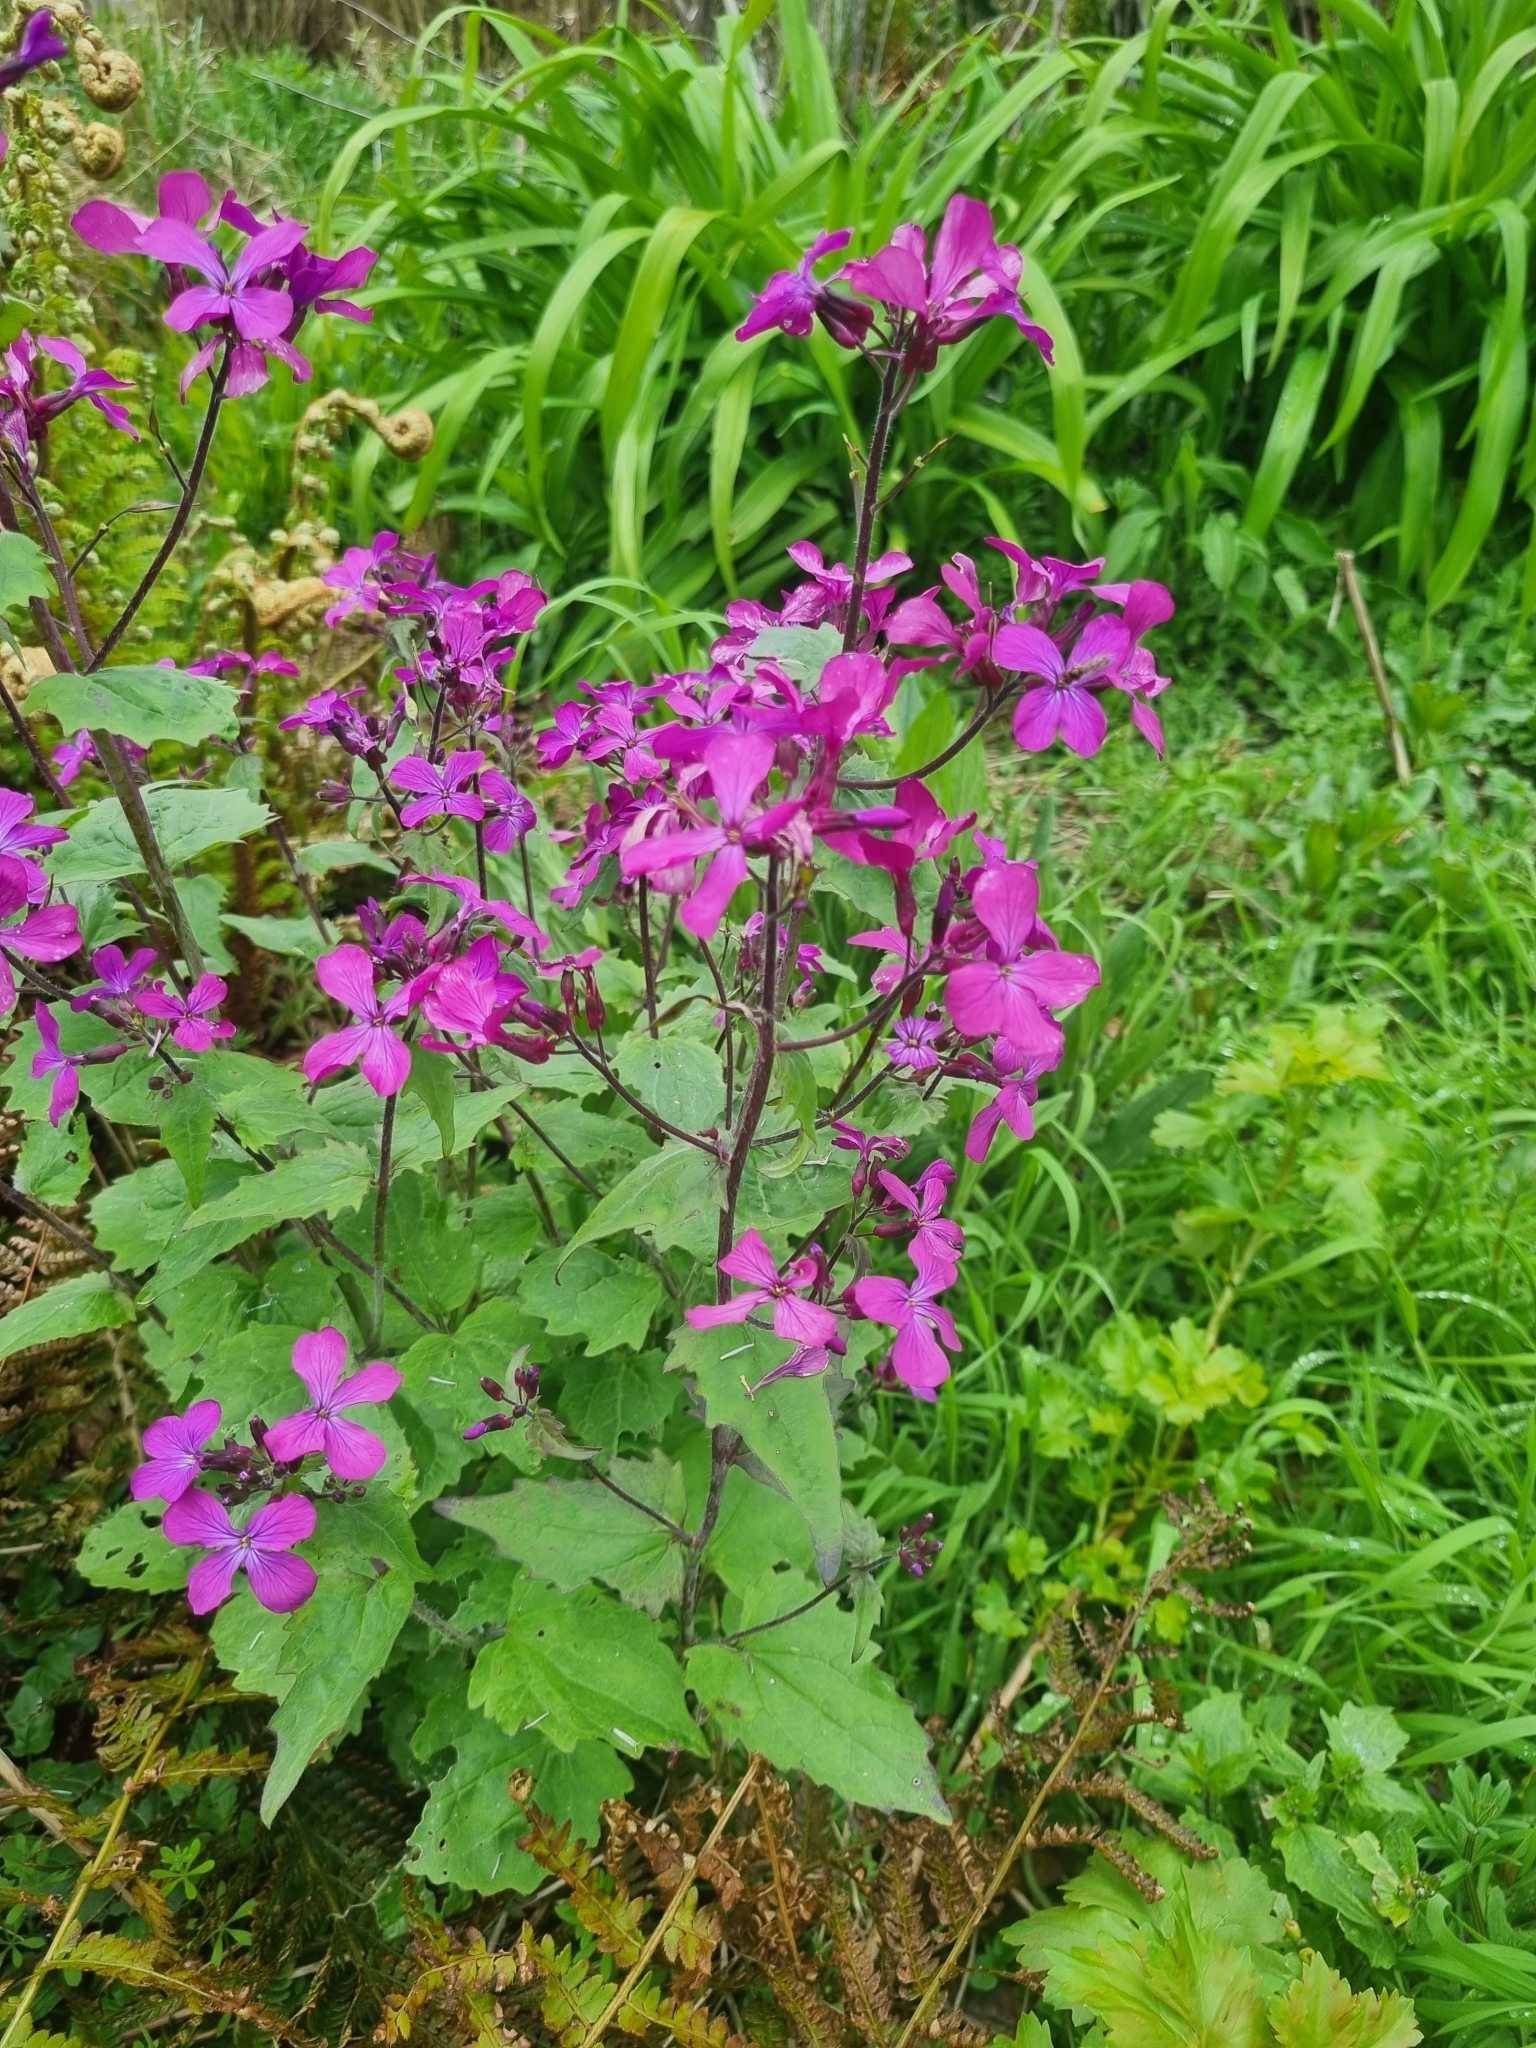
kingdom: Plantae
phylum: Tracheophyta
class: Magnoliopsida
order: Brassicales
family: Brassicaceae
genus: Lunaria
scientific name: Lunaria annua
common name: Honesty
